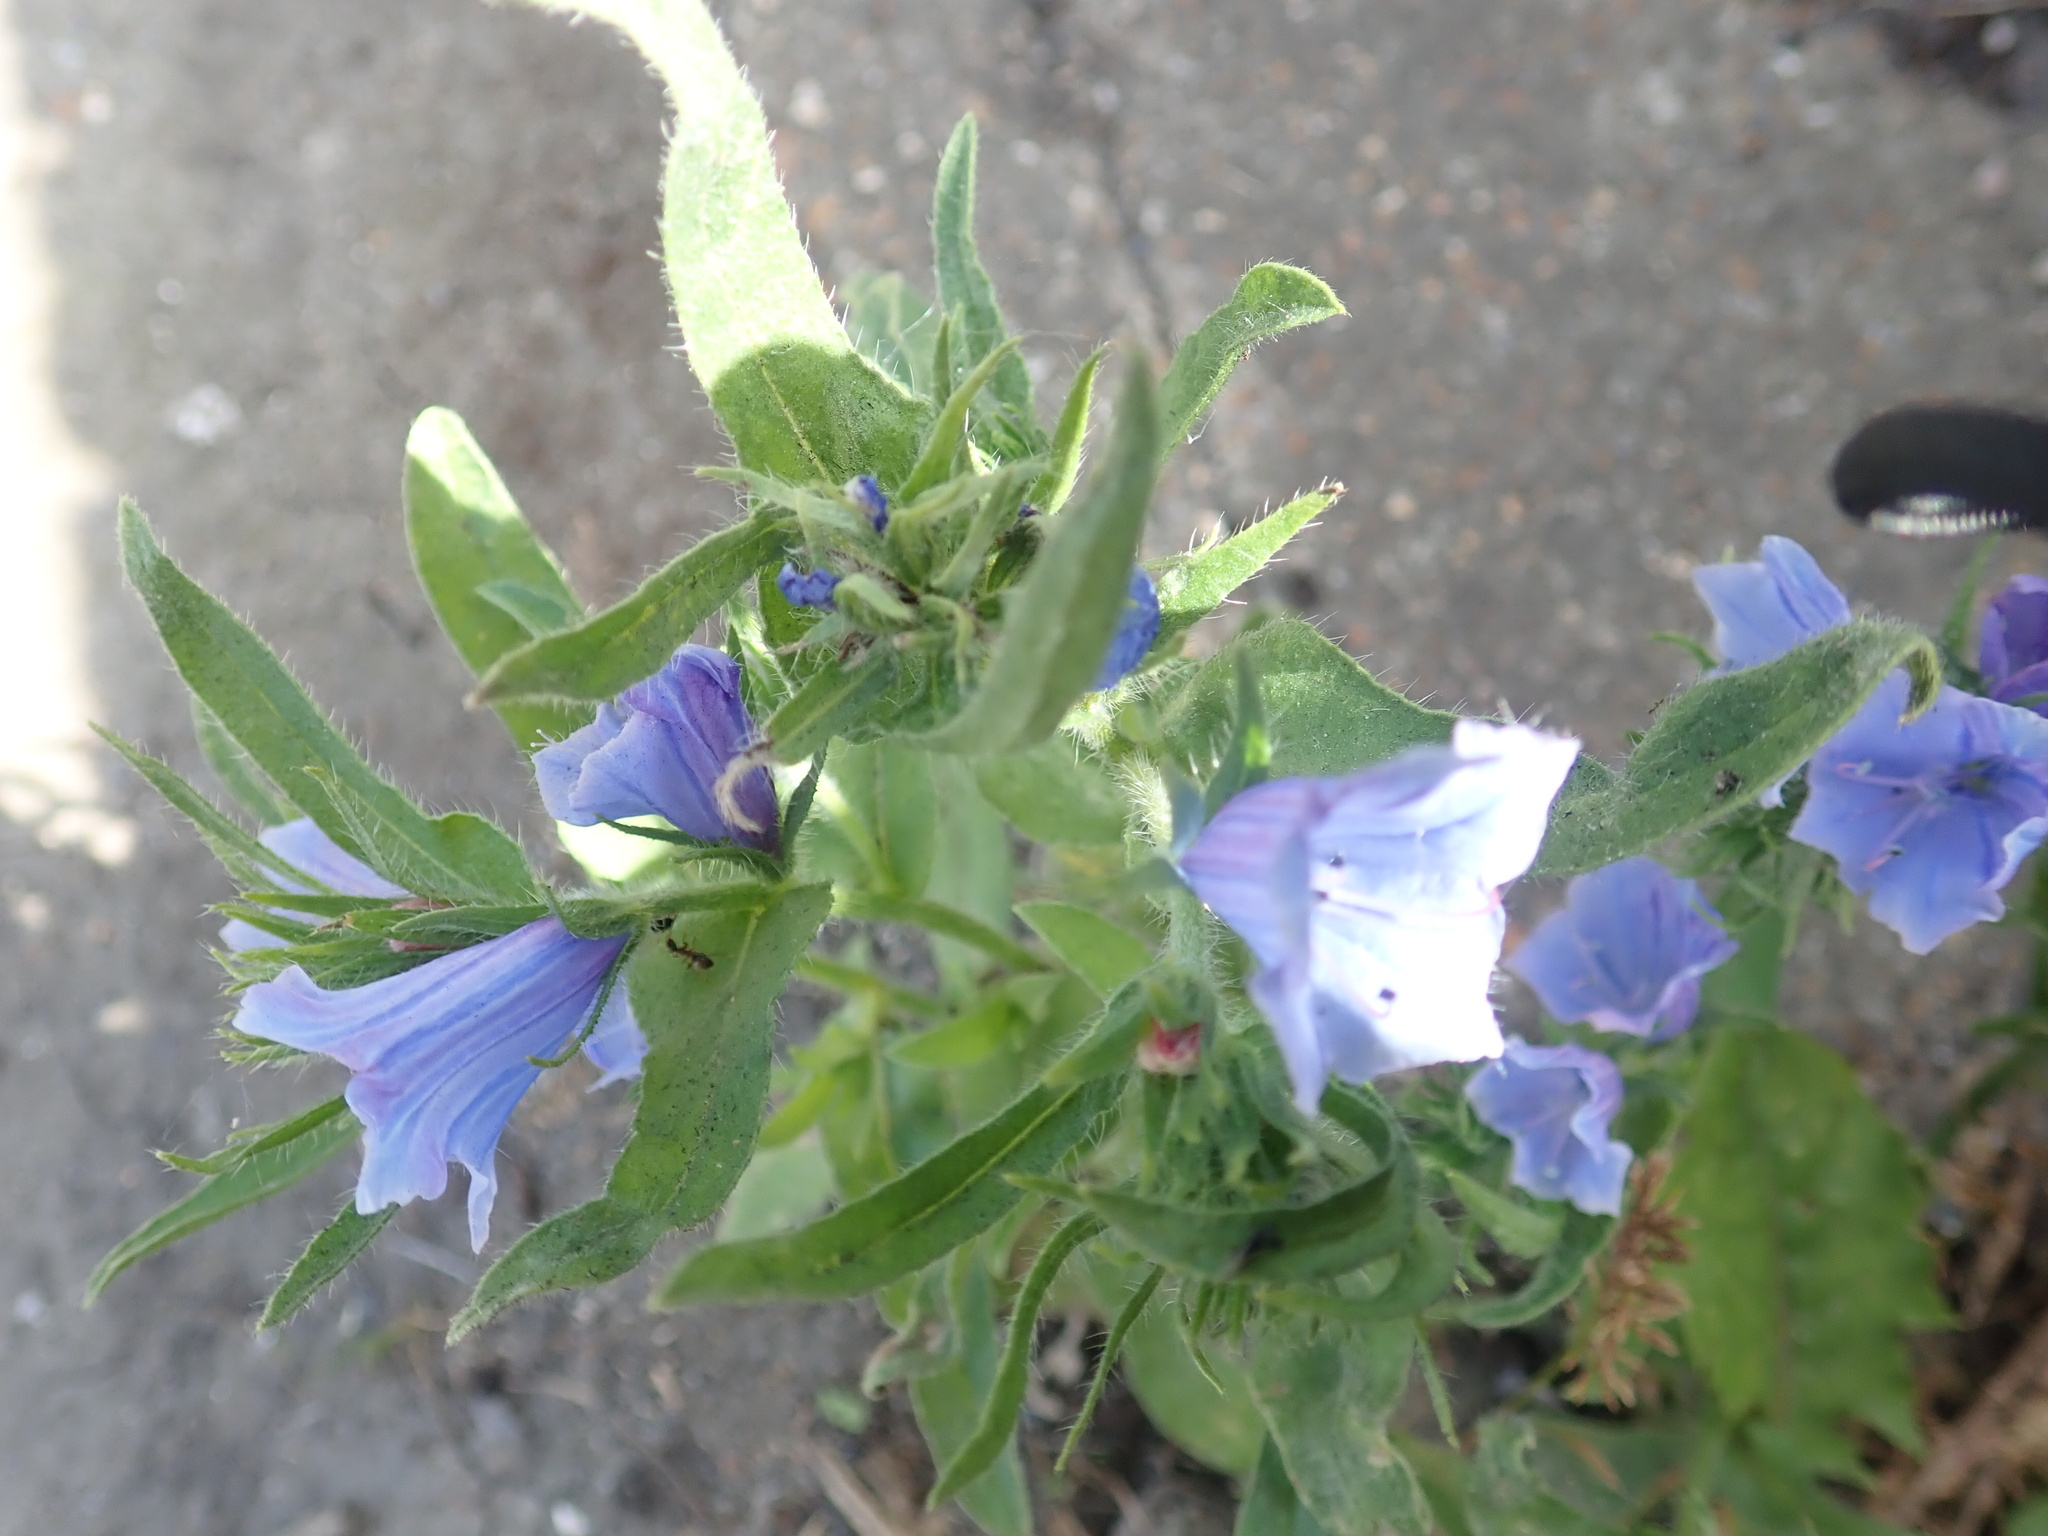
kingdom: Plantae
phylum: Tracheophyta
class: Magnoliopsida
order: Boraginales
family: Boraginaceae
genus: Echium
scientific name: Echium plantagineum
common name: Purple viper's-bugloss
